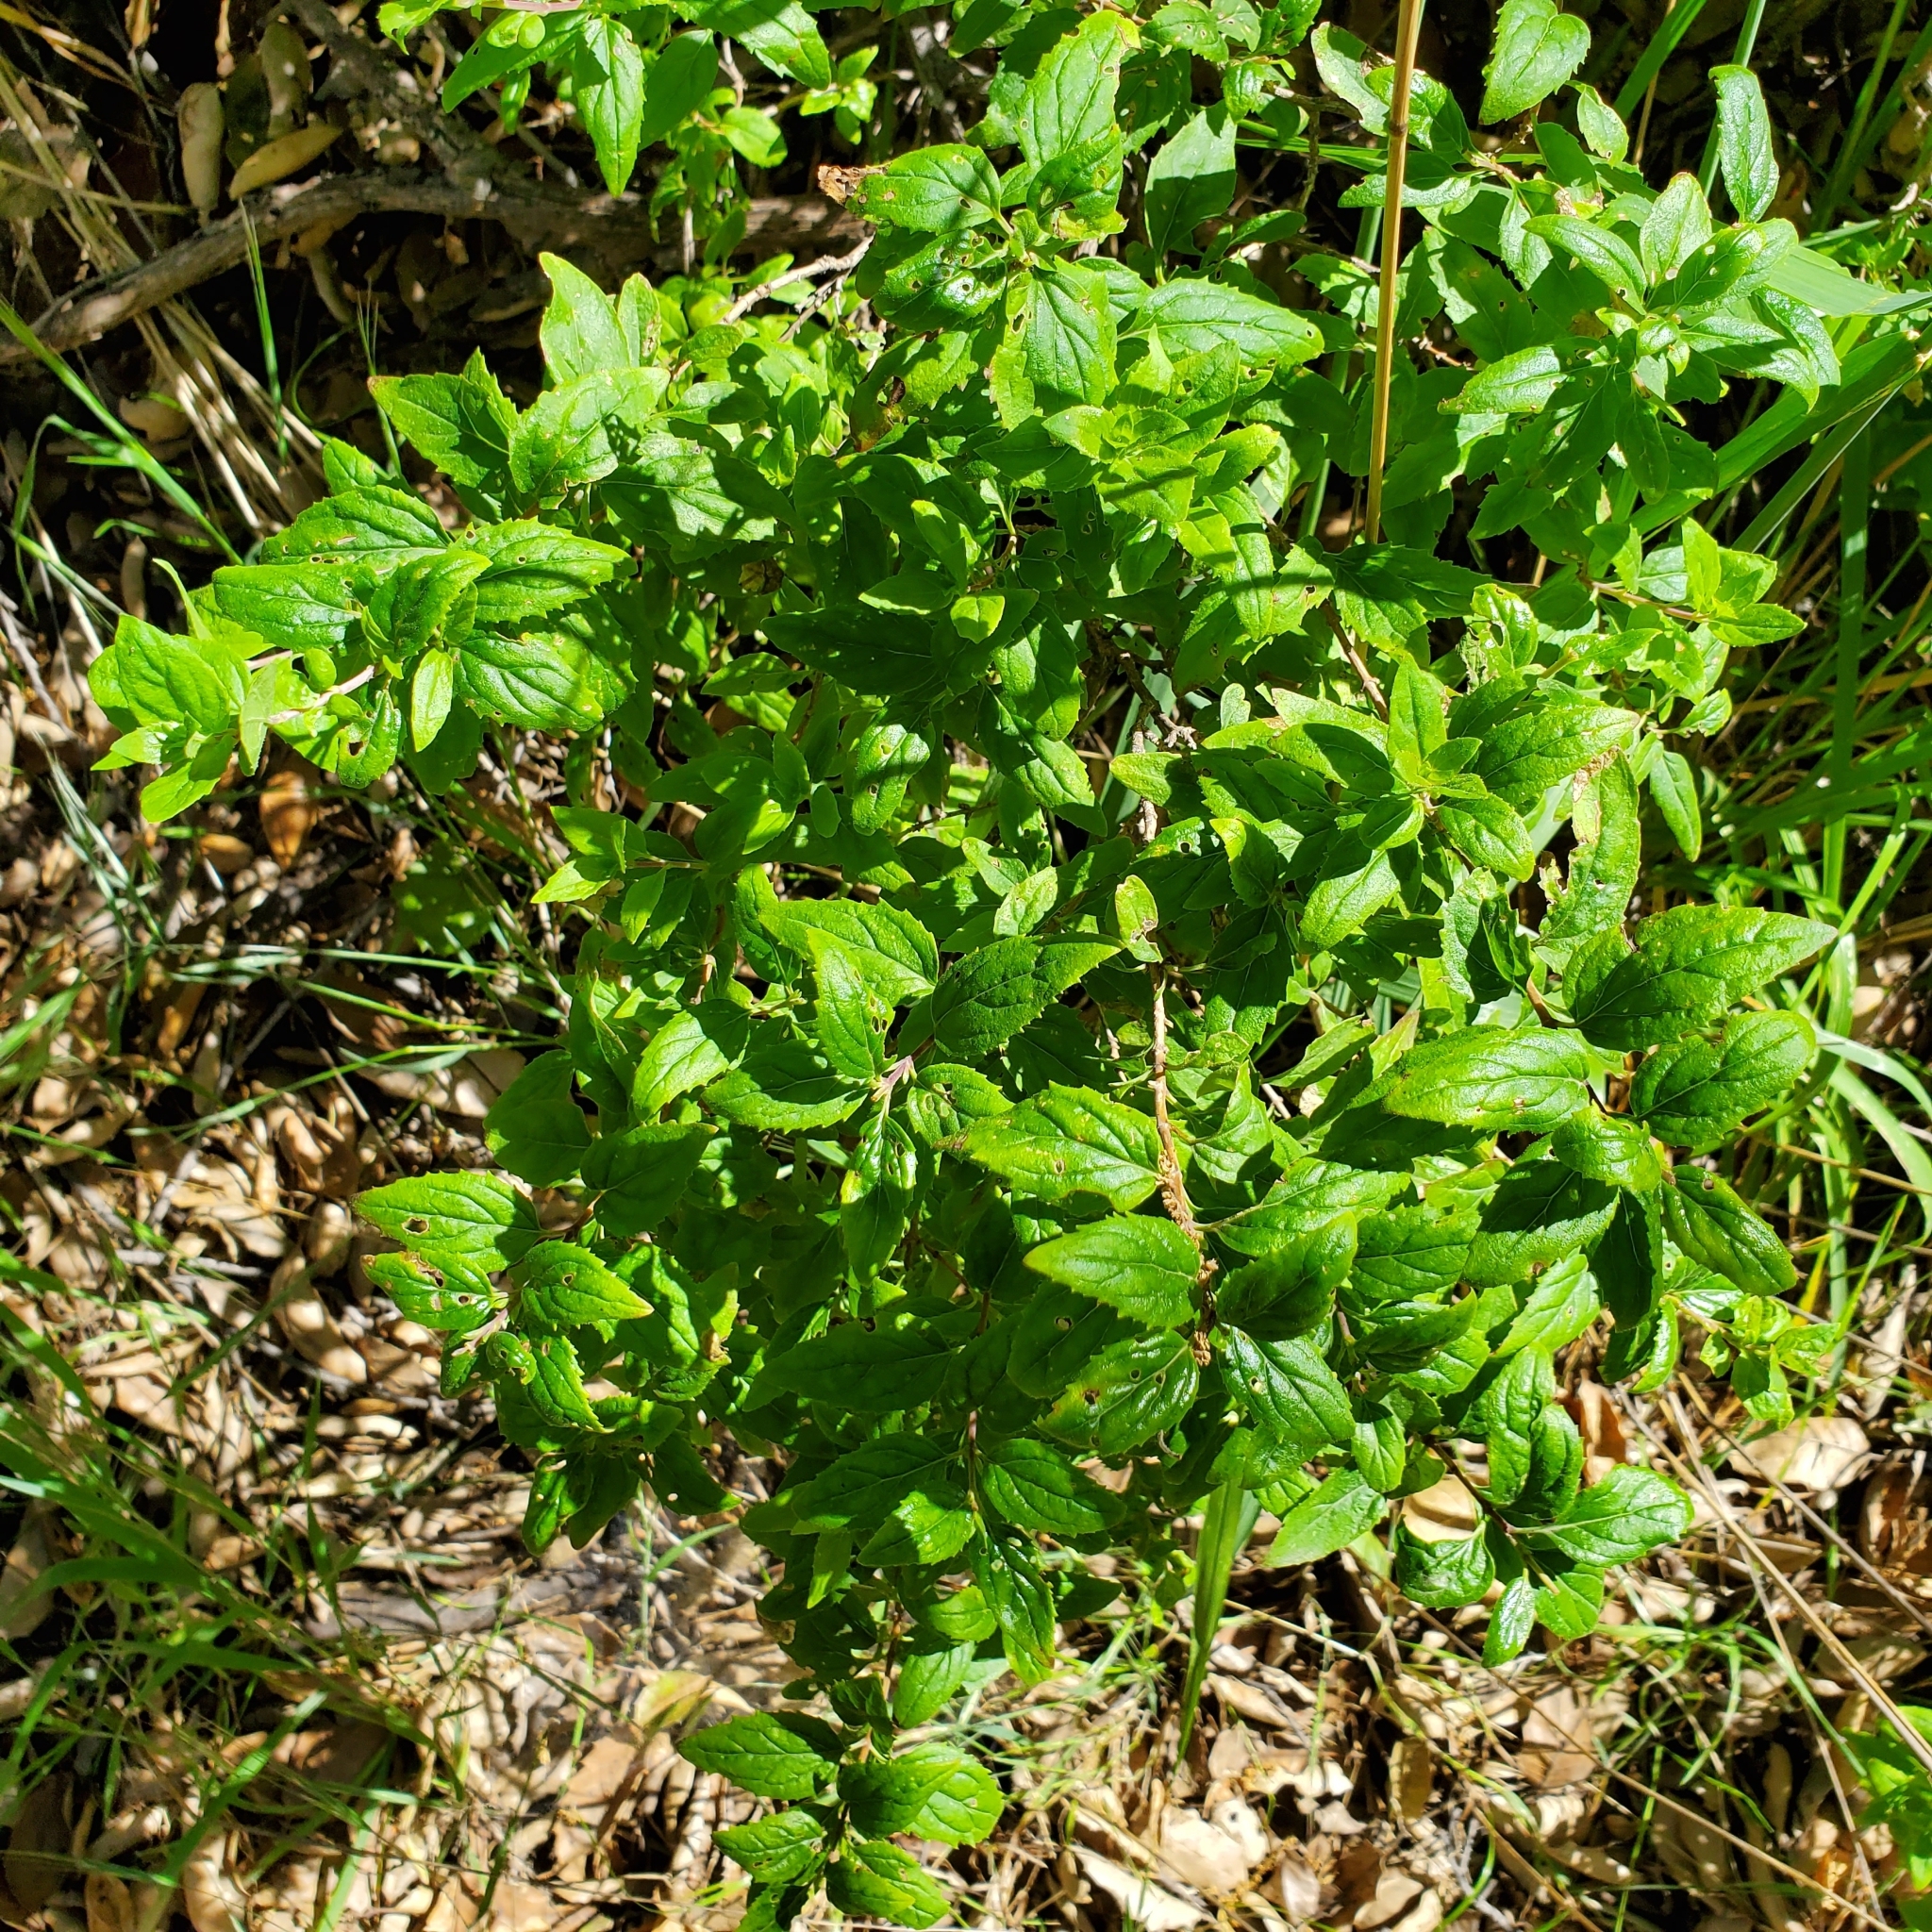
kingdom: Plantae
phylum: Tracheophyta
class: Magnoliopsida
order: Lamiales
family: Plantaginaceae
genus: Keckiella
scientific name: Keckiella cordifolia
